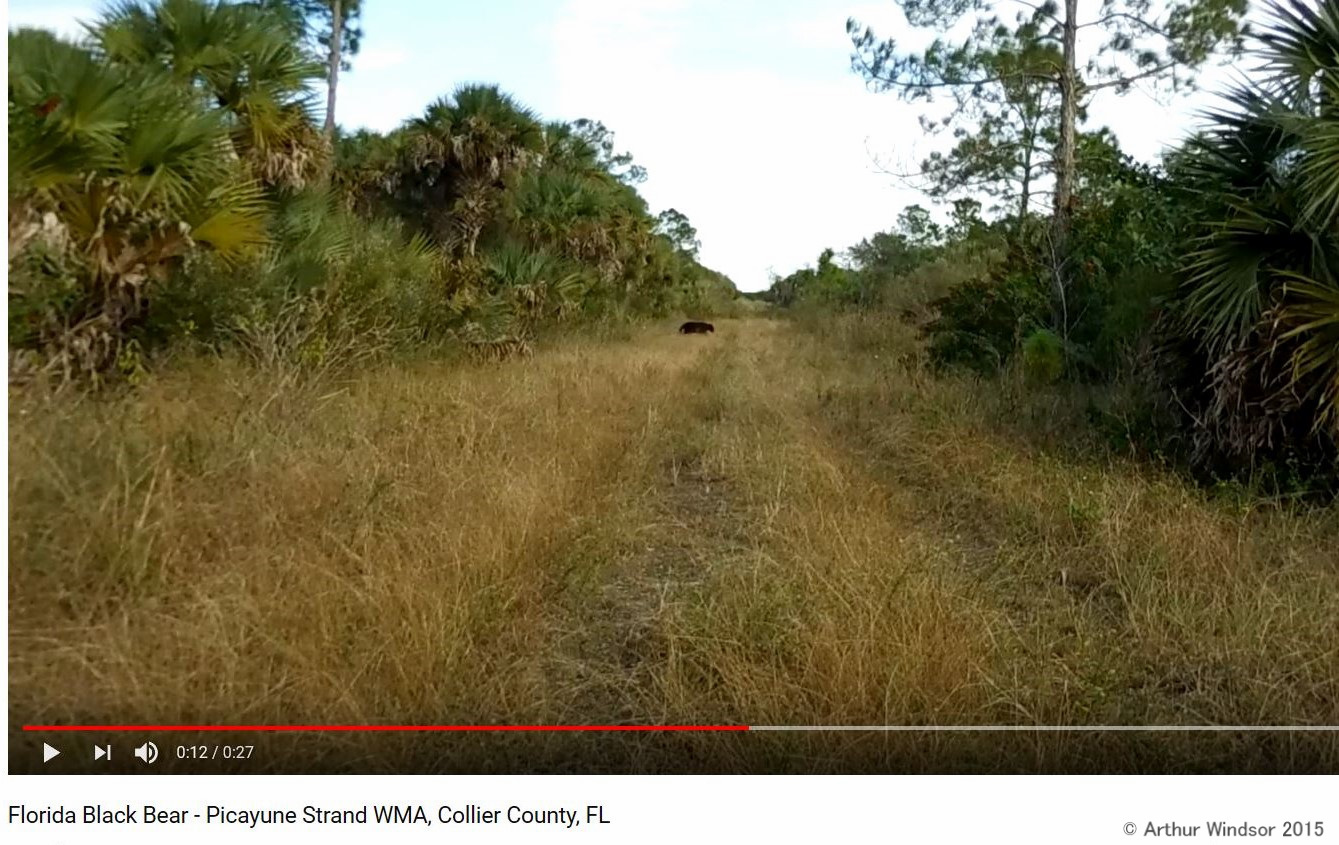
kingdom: Animalia
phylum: Chordata
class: Mammalia
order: Carnivora
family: Ursidae
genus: Ursus
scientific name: Ursus americanus
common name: American black bear
